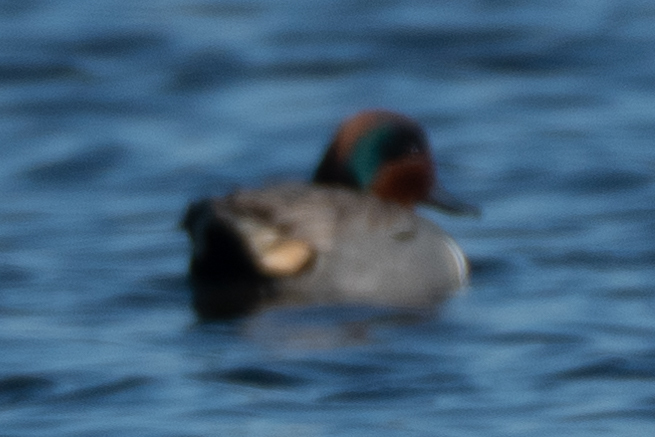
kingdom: Animalia
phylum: Chordata
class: Aves
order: Anseriformes
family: Anatidae
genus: Anas
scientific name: Anas crecca
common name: Eurasian teal
